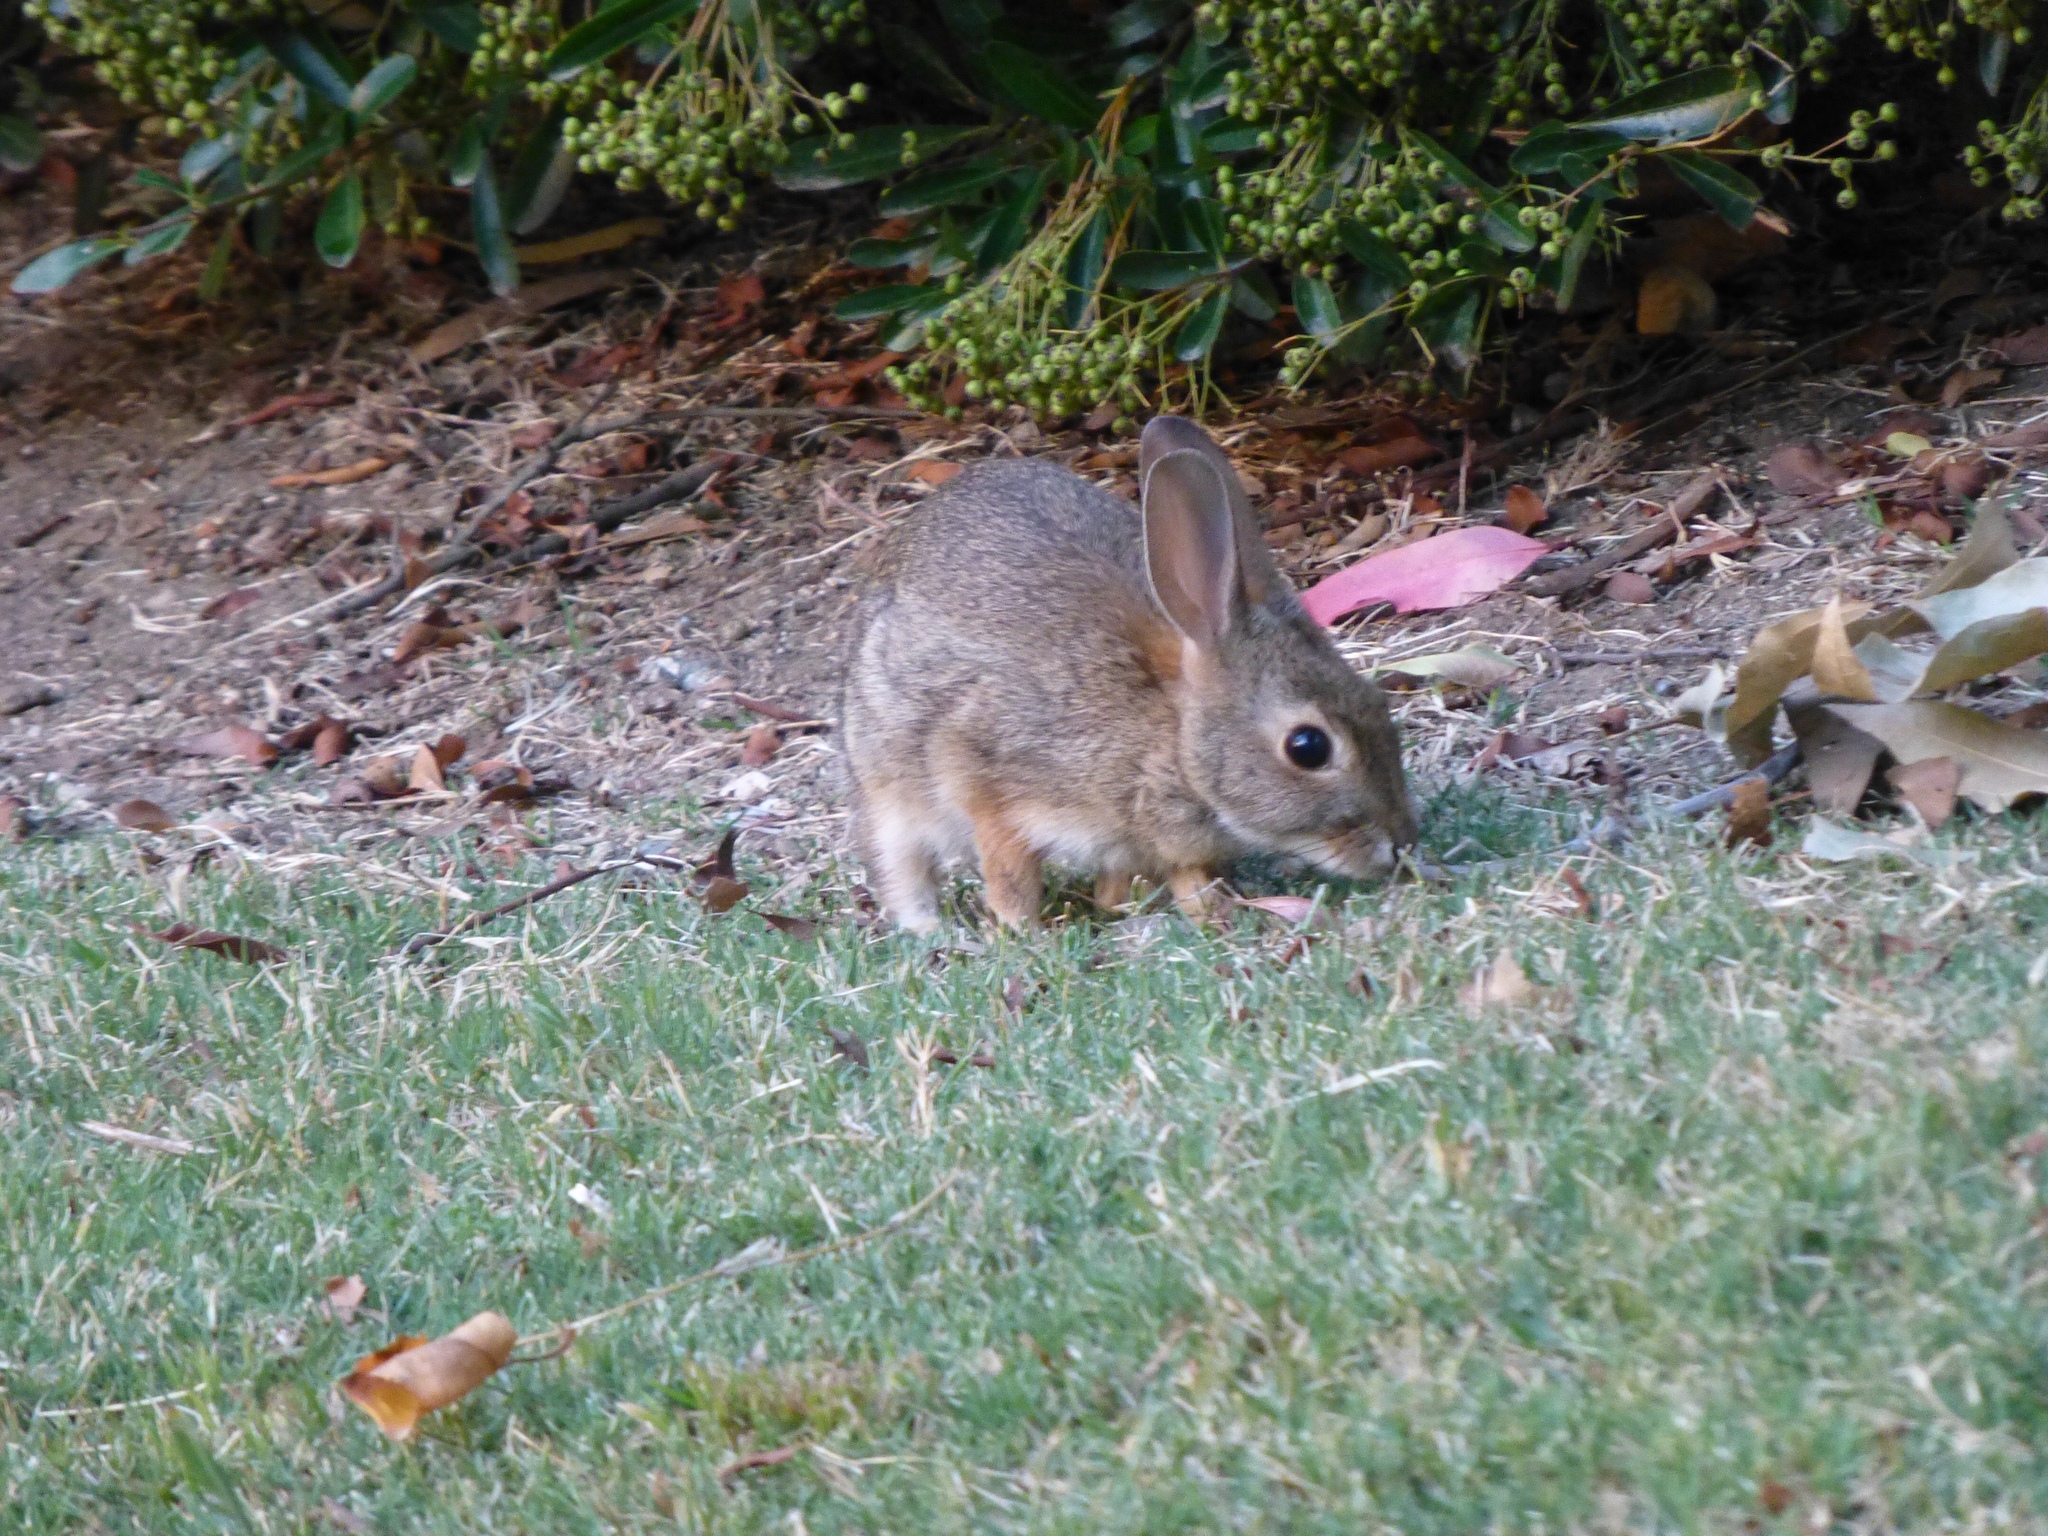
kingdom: Animalia
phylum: Chordata
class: Mammalia
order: Lagomorpha
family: Leporidae
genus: Sylvilagus
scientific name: Sylvilagus audubonii
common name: Desert cottontail
